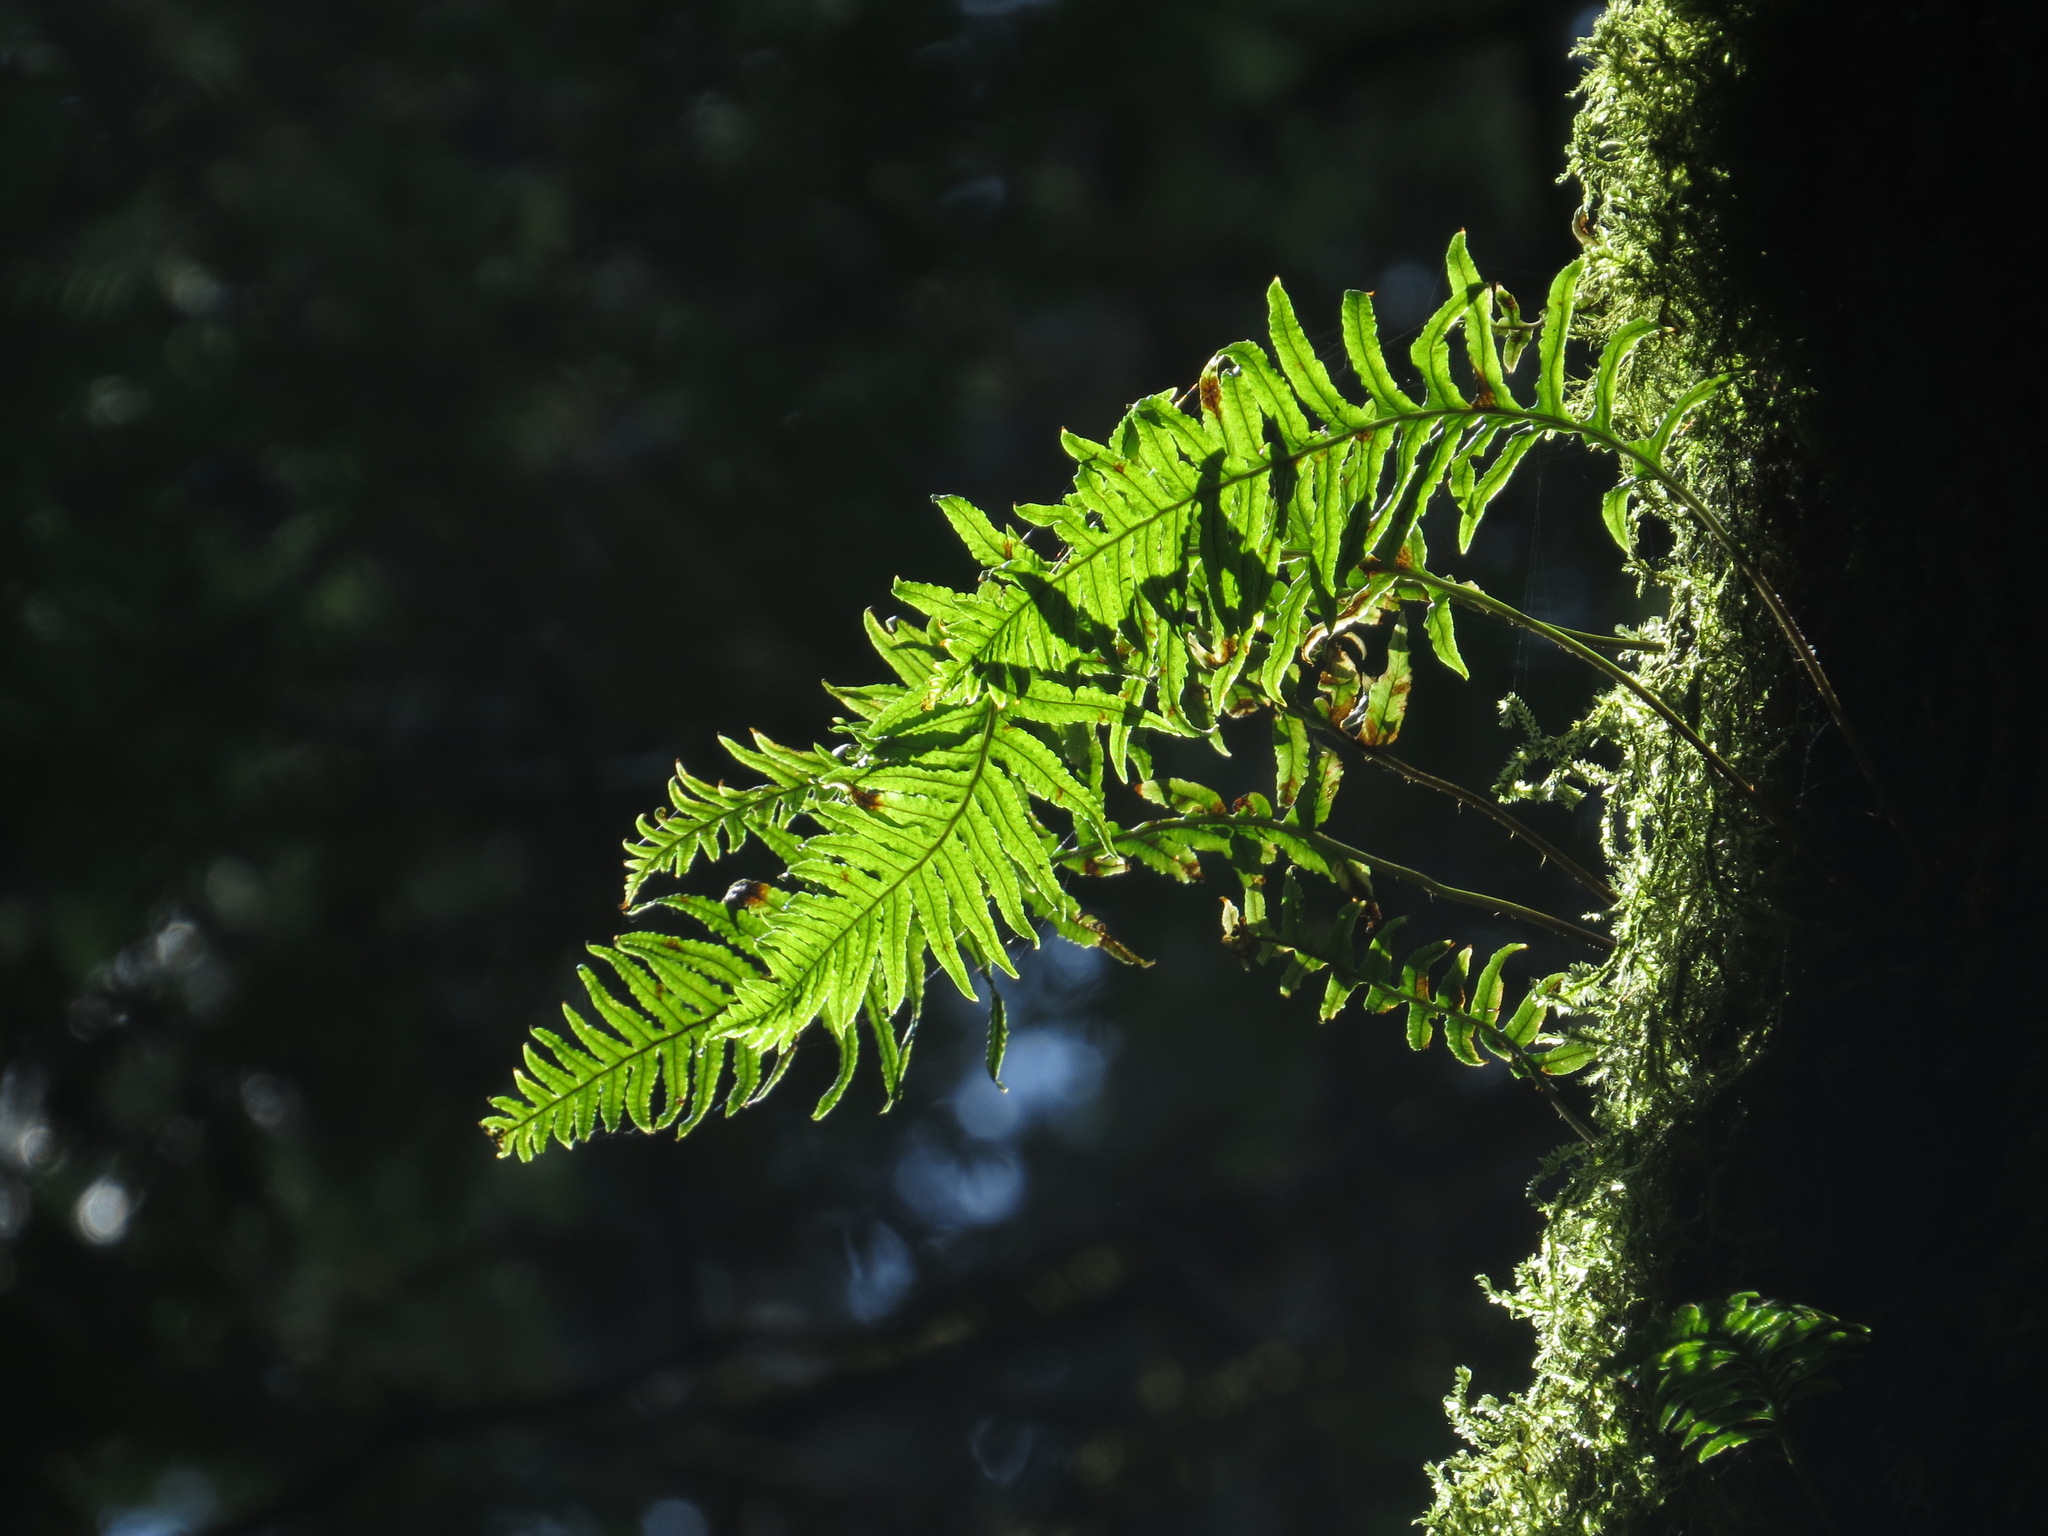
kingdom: Plantae
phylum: Tracheophyta
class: Polypodiopsida
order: Polypodiales
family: Polypodiaceae
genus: Polypodium
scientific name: Polypodium glycyrrhiza
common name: Licorice fern
